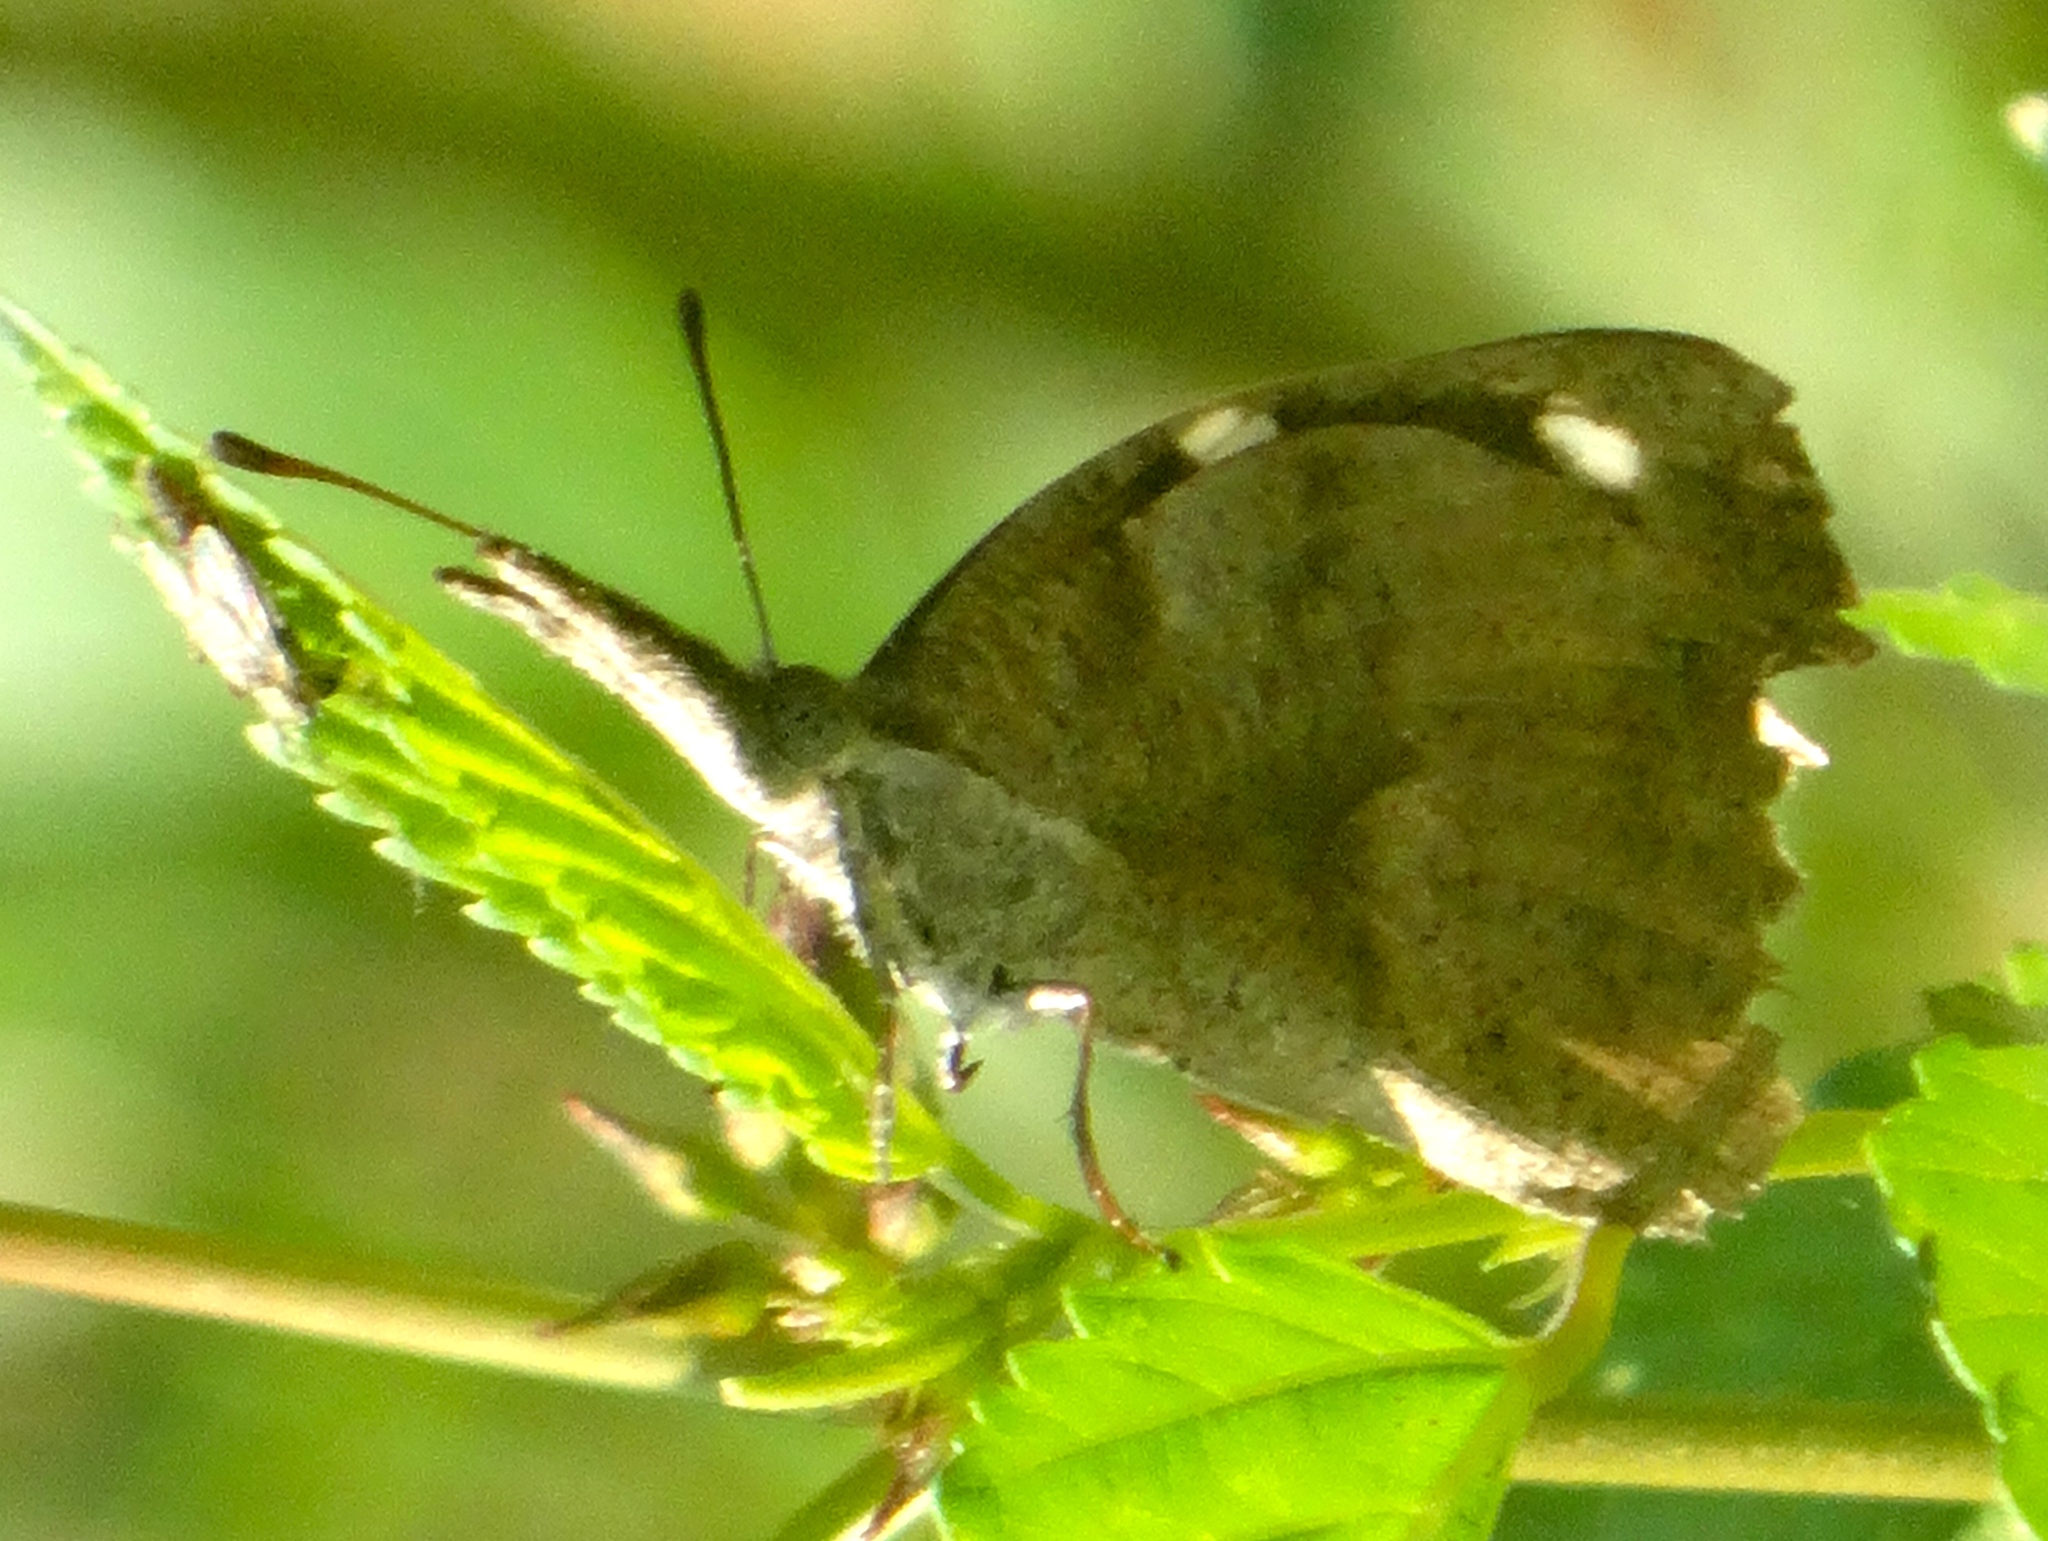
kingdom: Animalia
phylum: Arthropoda
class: Insecta
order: Lepidoptera
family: Nymphalidae
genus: Libytheana
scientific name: Libytheana carinenta
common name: American snout
